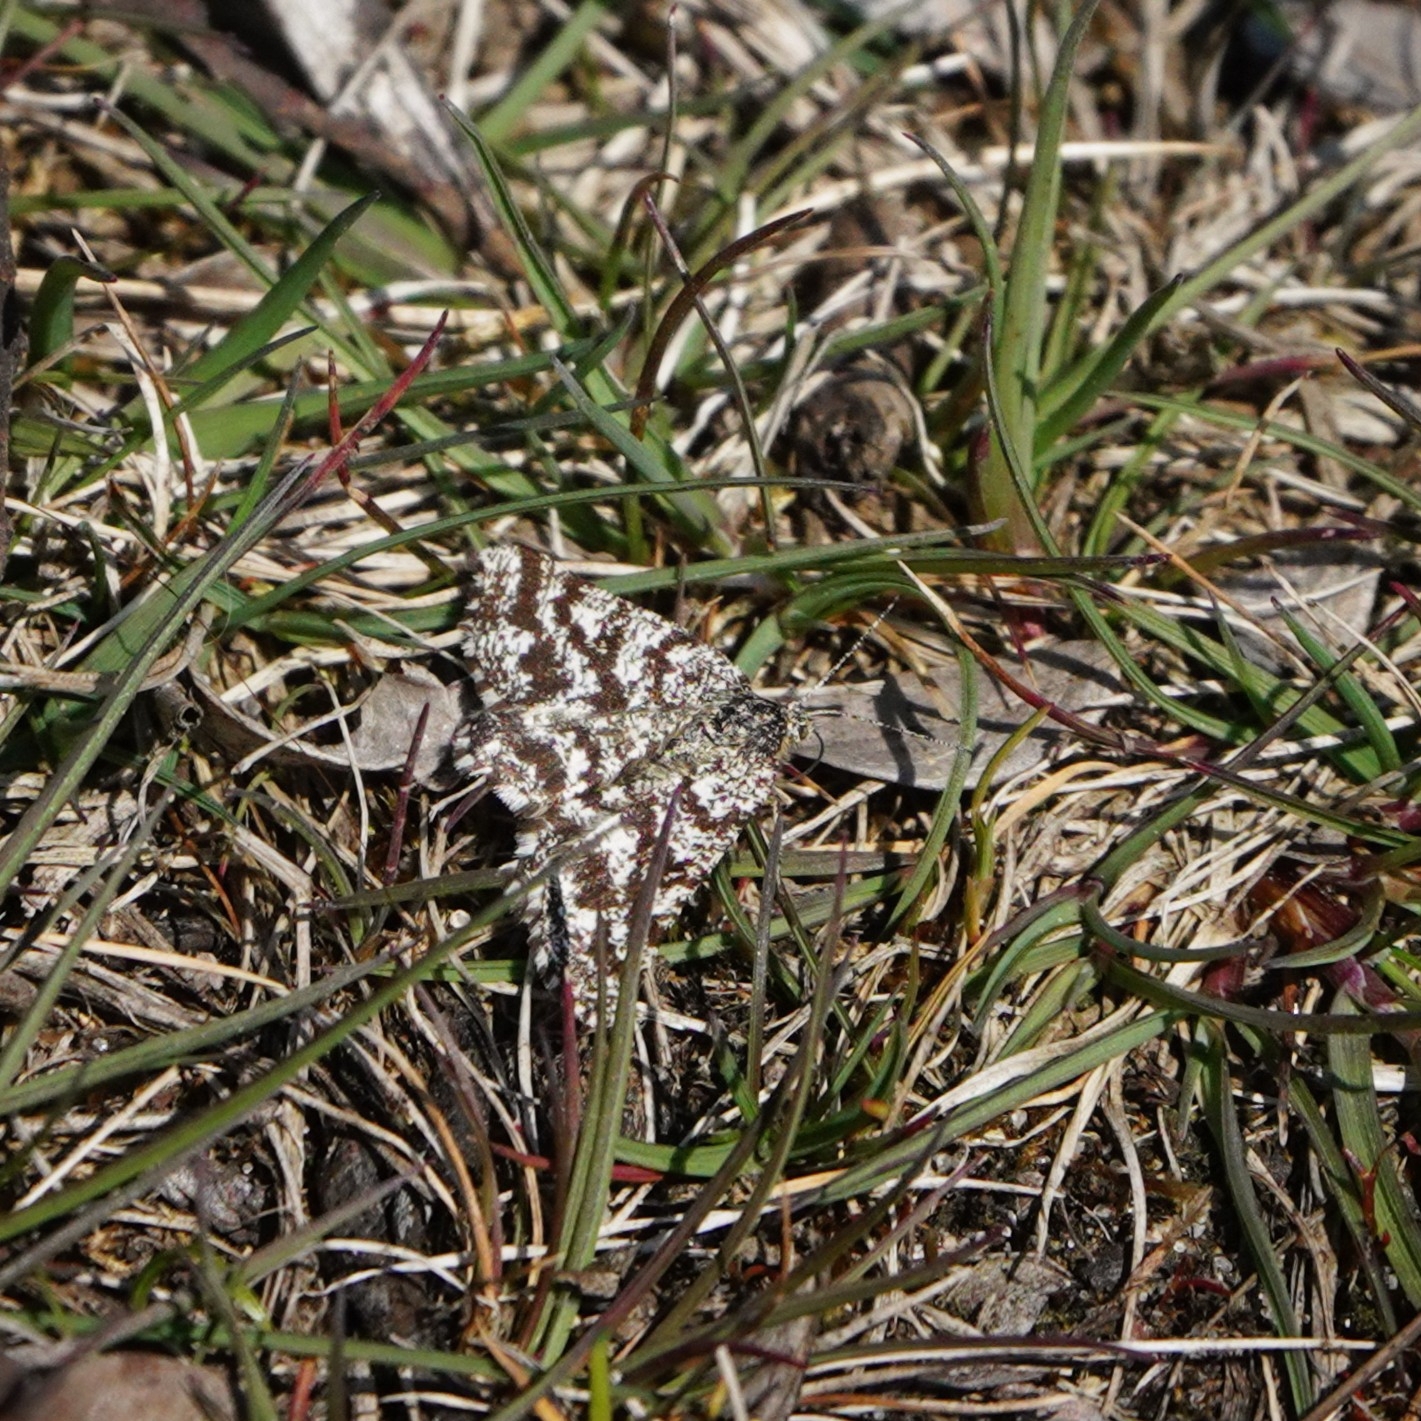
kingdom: Animalia
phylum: Arthropoda
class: Insecta
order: Lepidoptera
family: Geometridae
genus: Ematurga
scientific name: Ematurga atomaria
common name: Common heath
